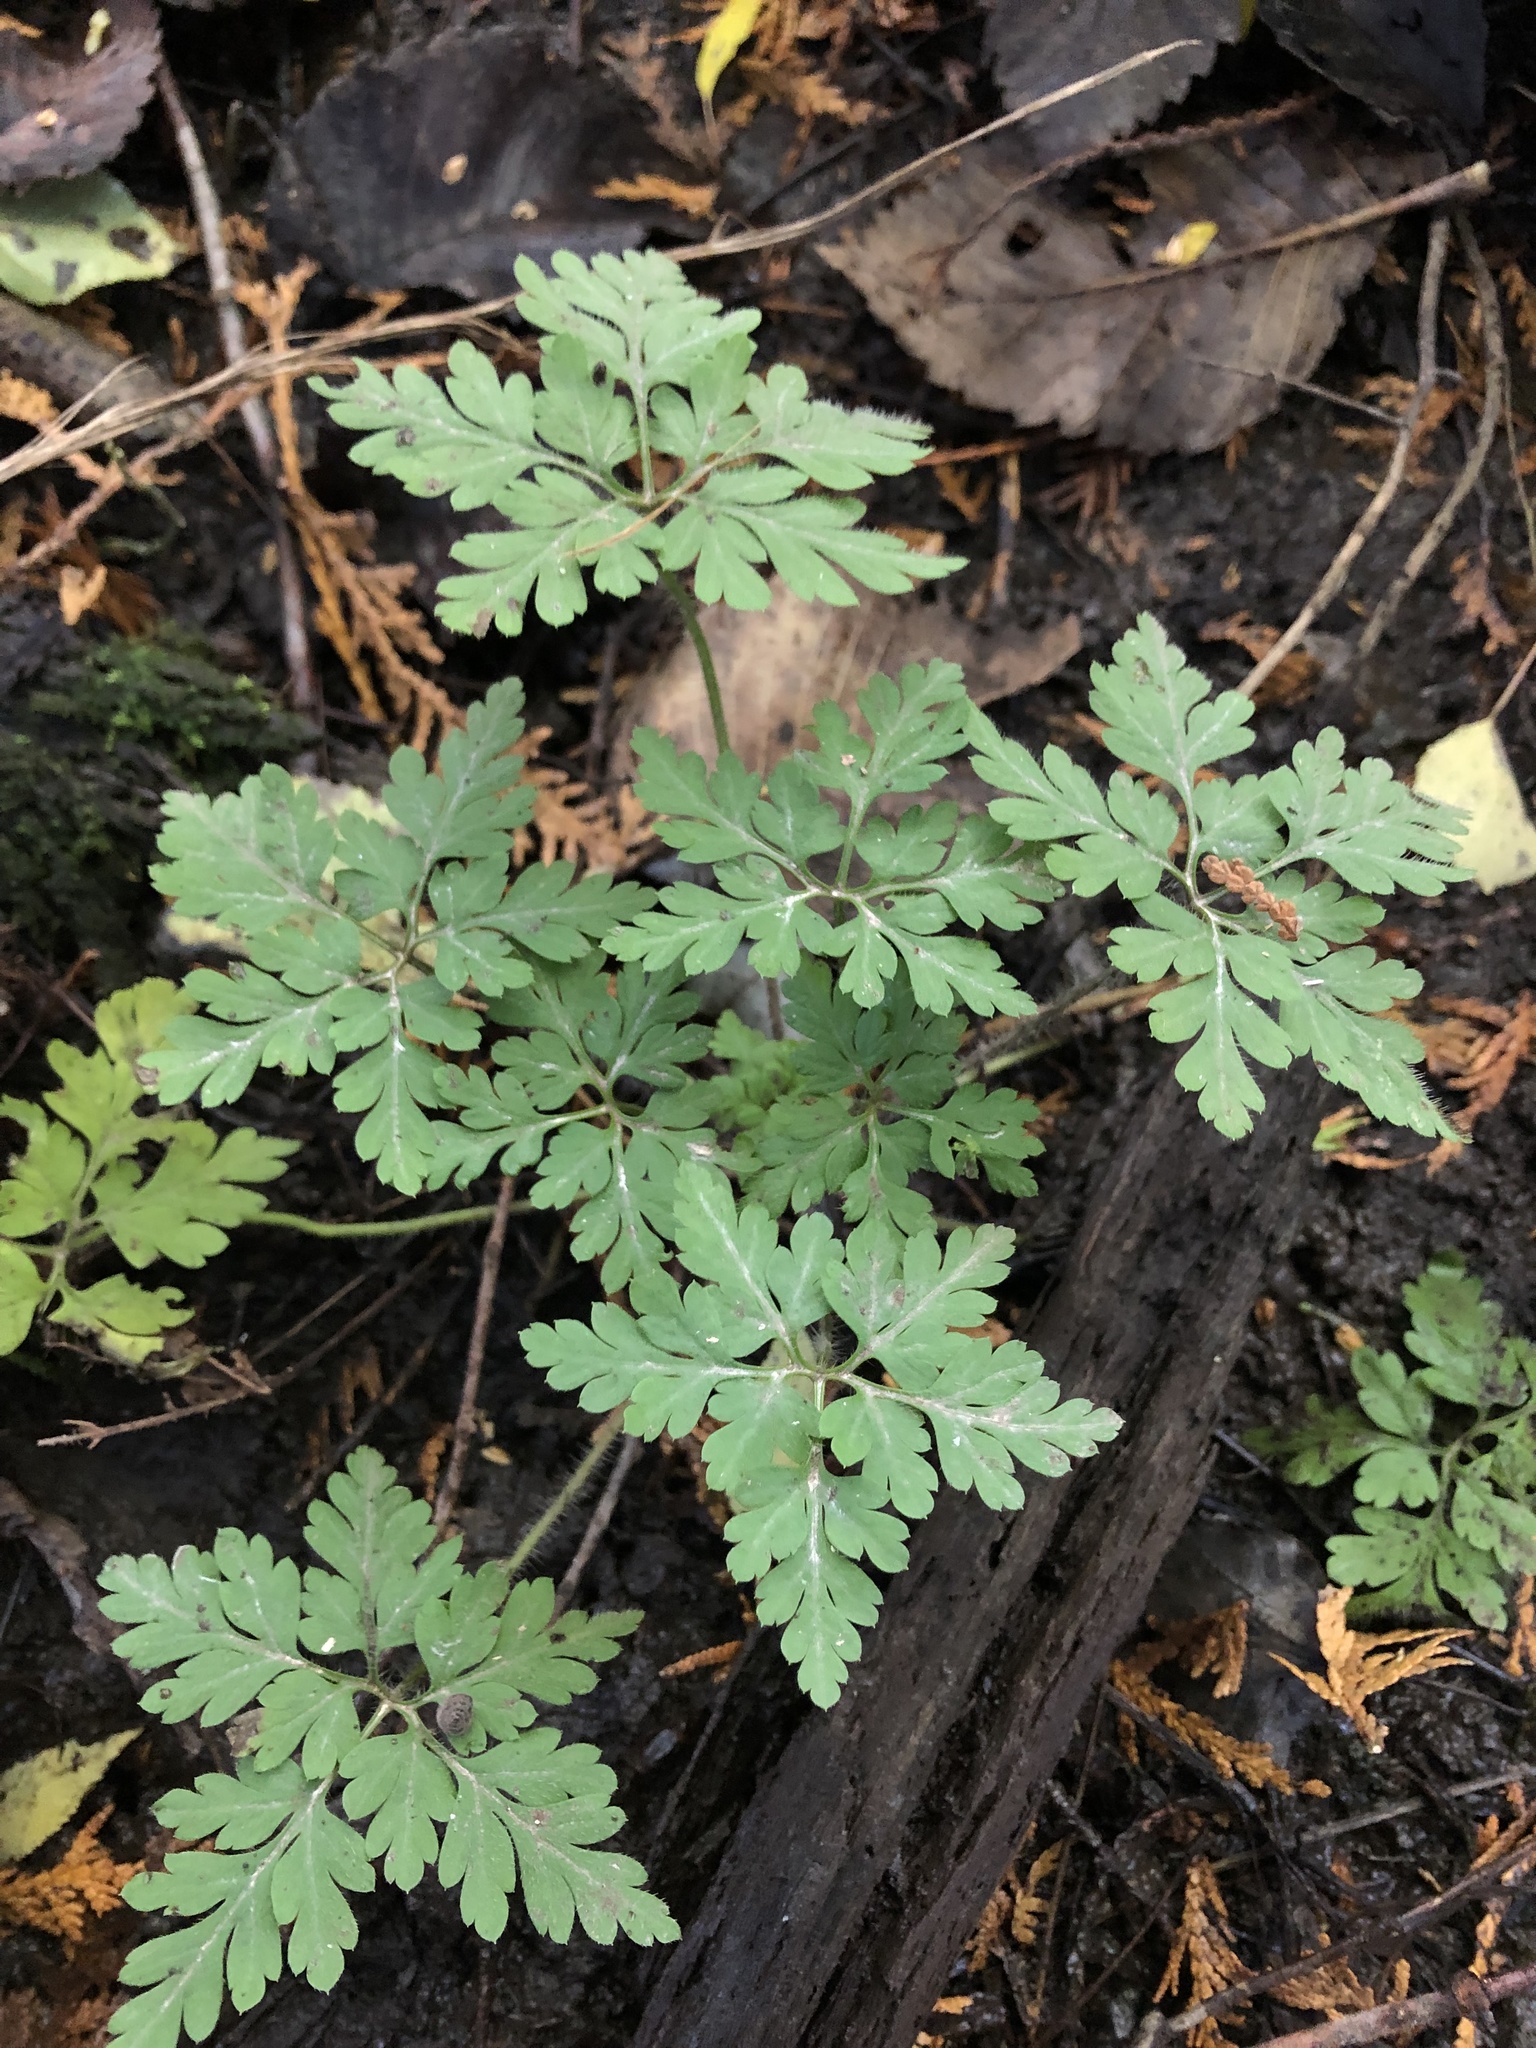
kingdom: Plantae
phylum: Tracheophyta
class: Magnoliopsida
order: Geraniales
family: Geraniaceae
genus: Geranium
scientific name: Geranium robertianum
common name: Herb-robert
